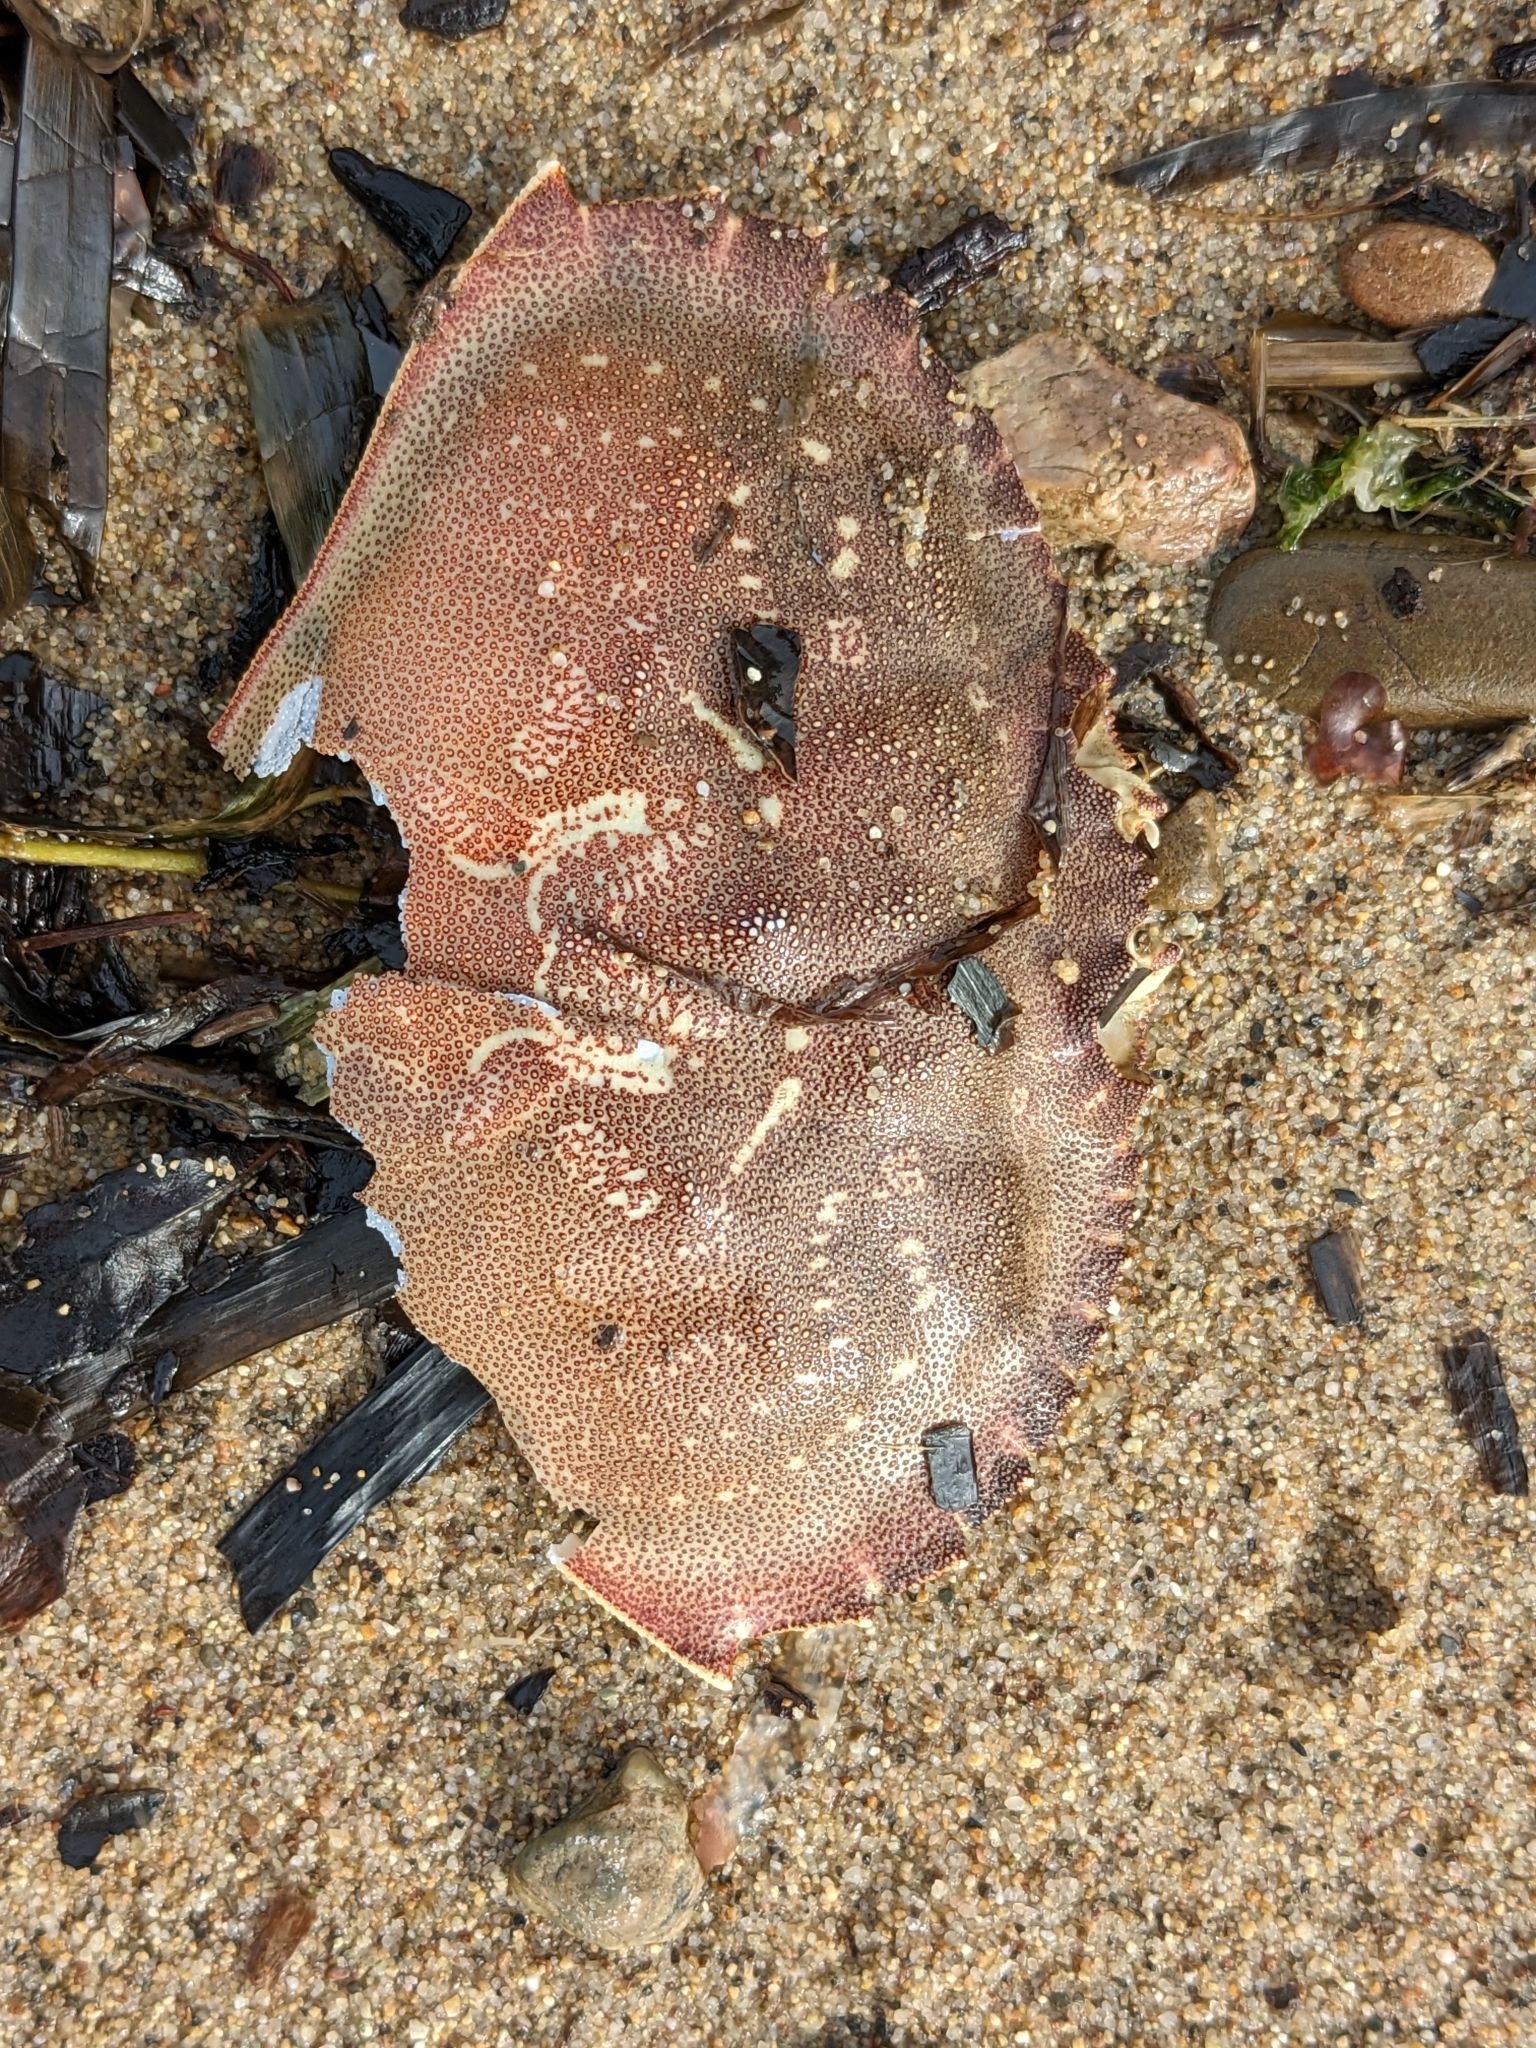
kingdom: Animalia
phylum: Arthropoda
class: Malacostraca
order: Decapoda
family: Cancridae
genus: Metacarcinus
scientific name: Metacarcinus magister
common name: Californian crab
